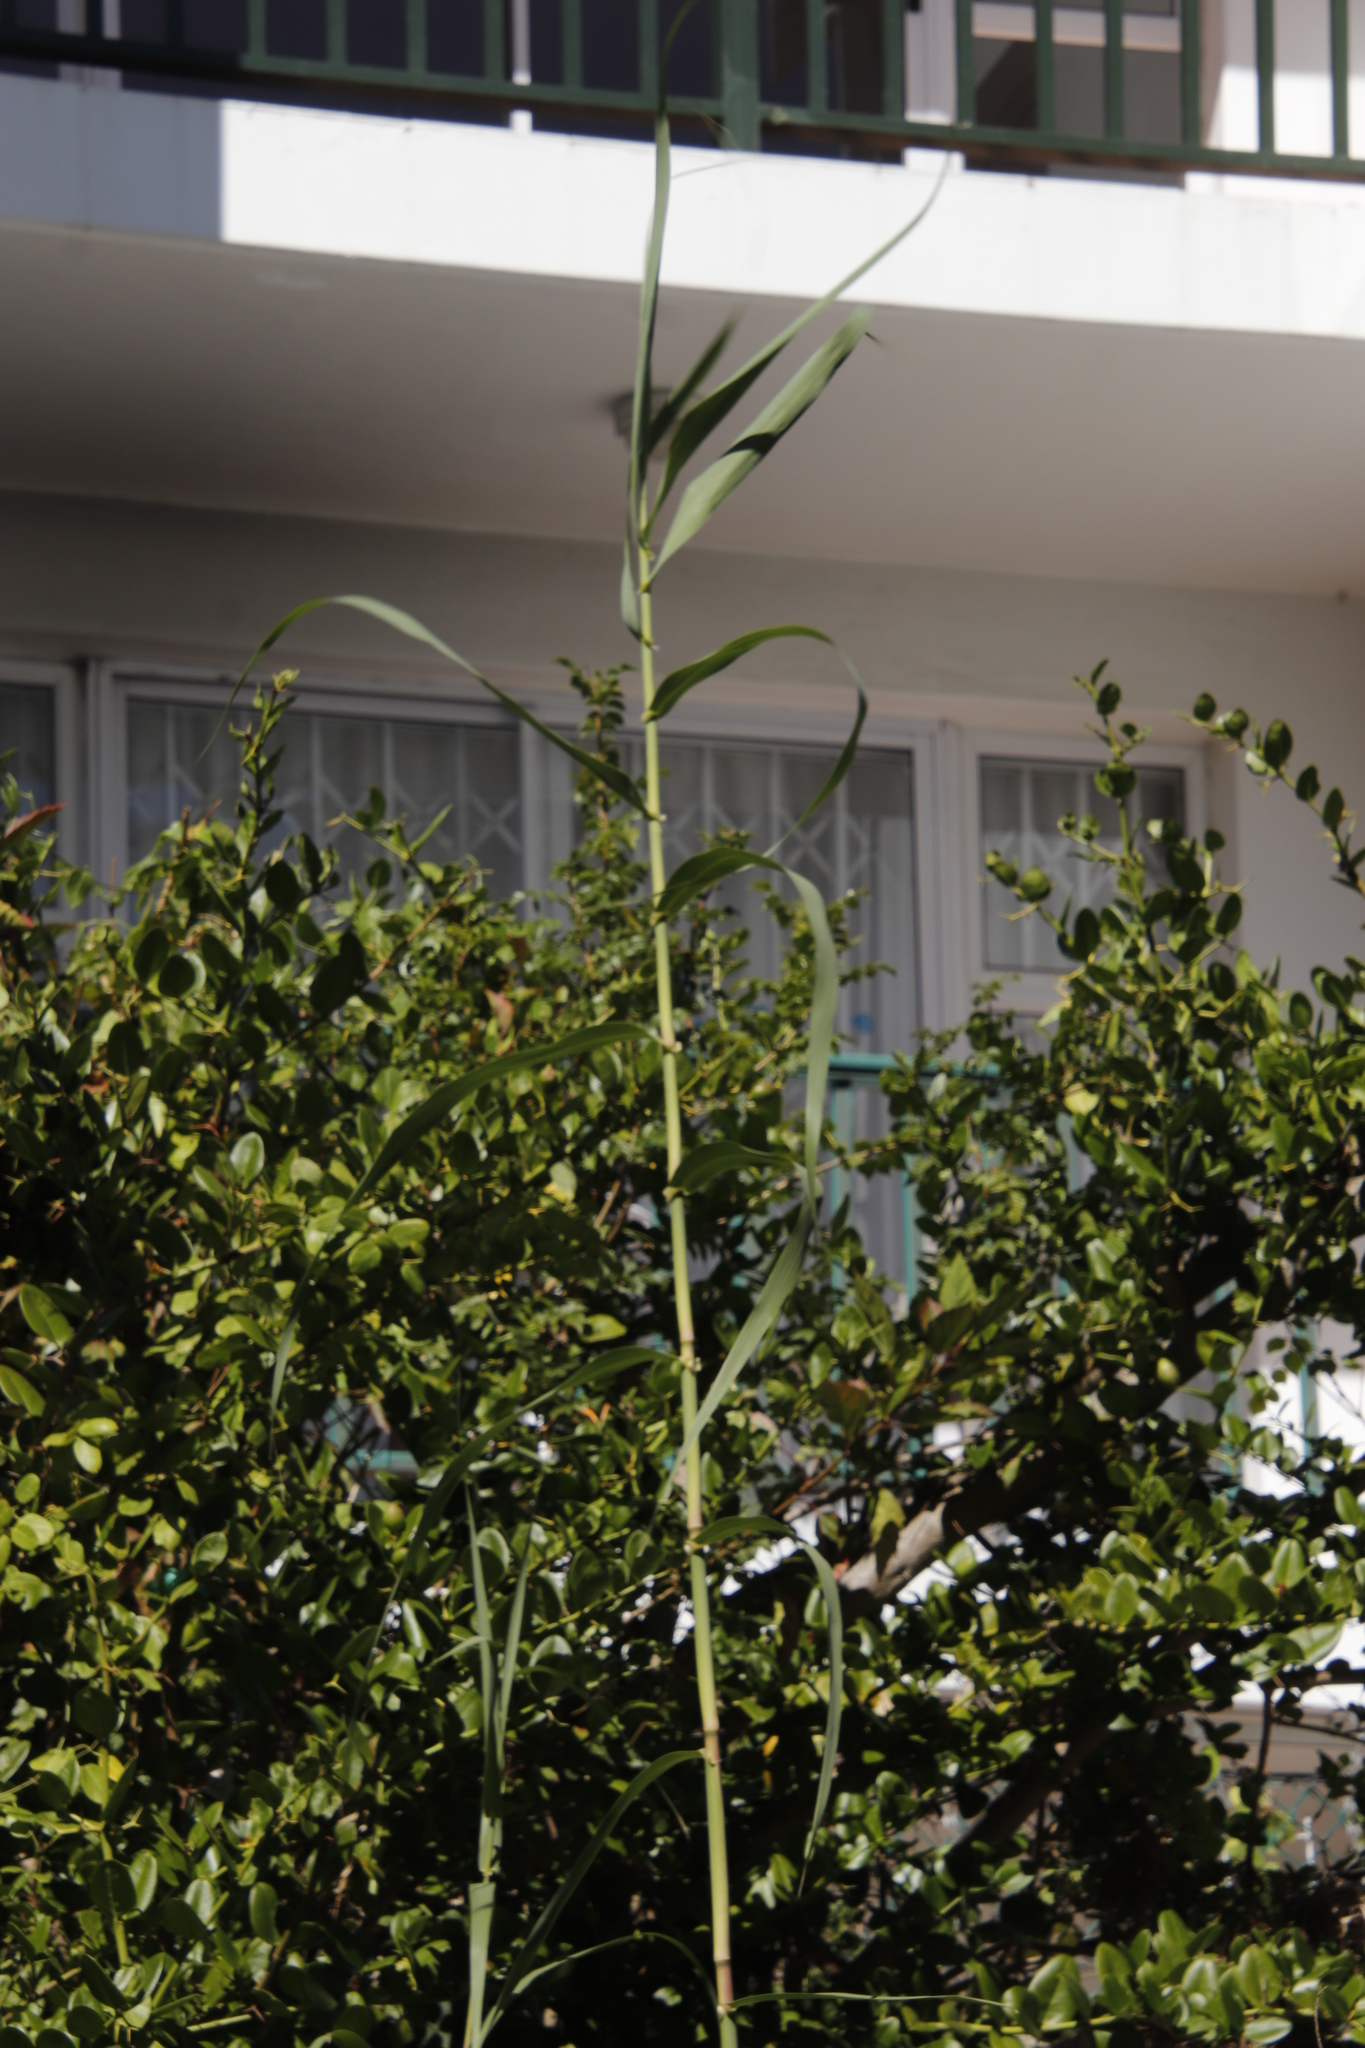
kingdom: Plantae
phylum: Tracheophyta
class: Liliopsida
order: Poales
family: Poaceae
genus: Arundo
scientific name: Arundo donax
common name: Giant reed
